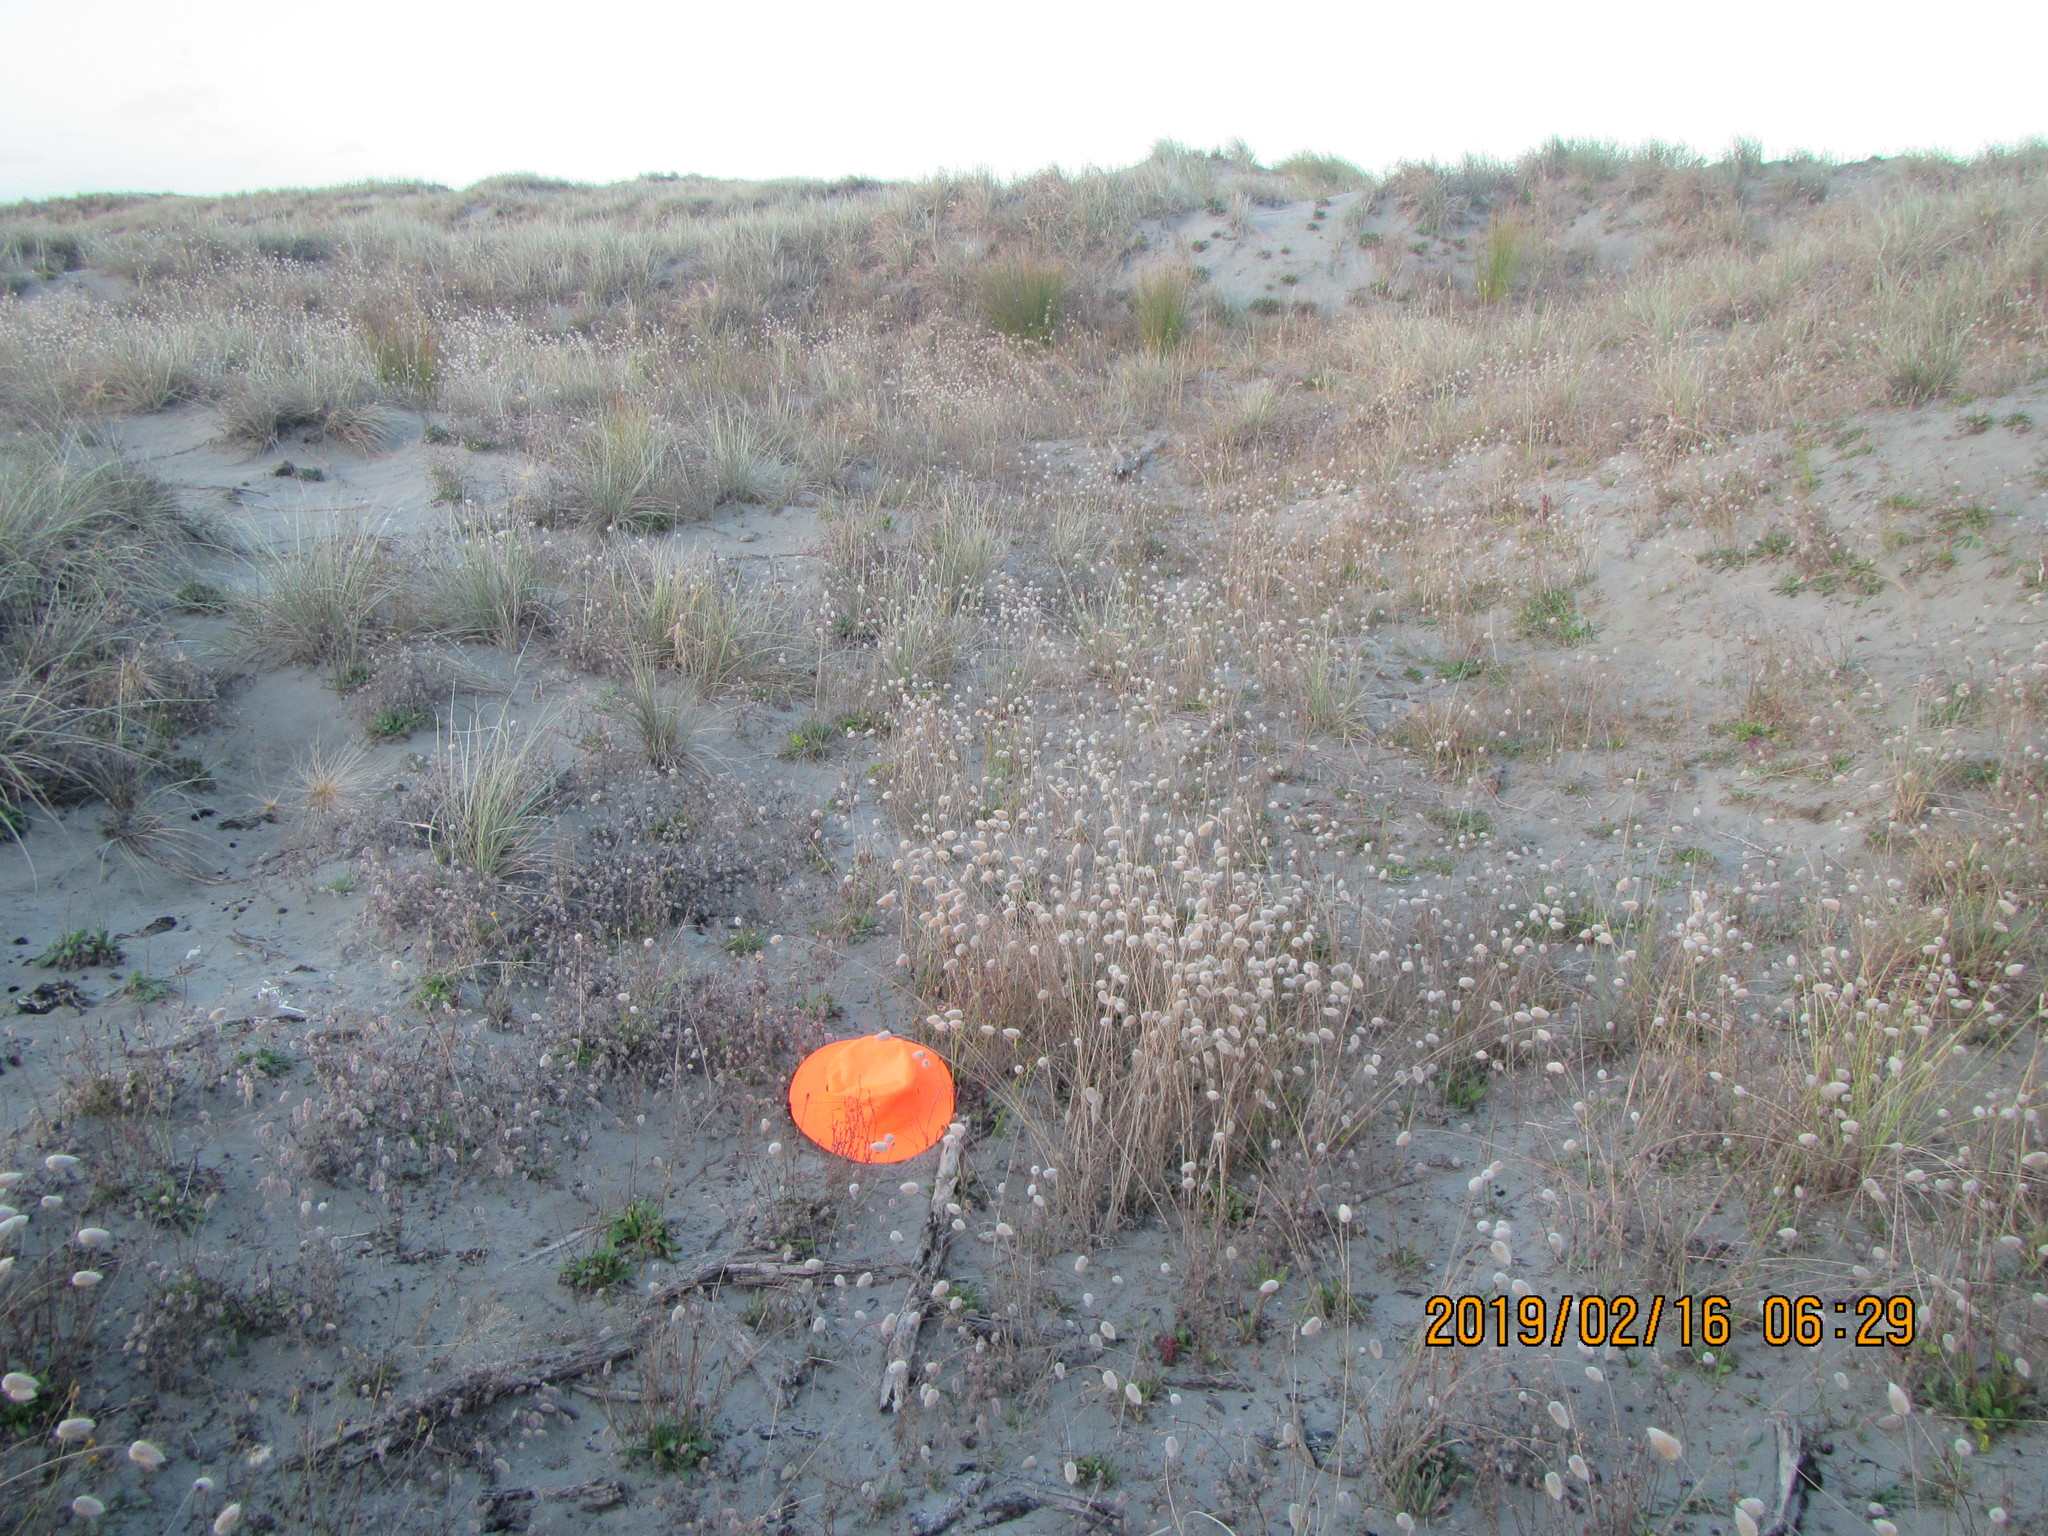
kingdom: Plantae
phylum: Tracheophyta
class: Liliopsida
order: Poales
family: Poaceae
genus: Lagurus
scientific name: Lagurus ovatus
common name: Hare's-tail
